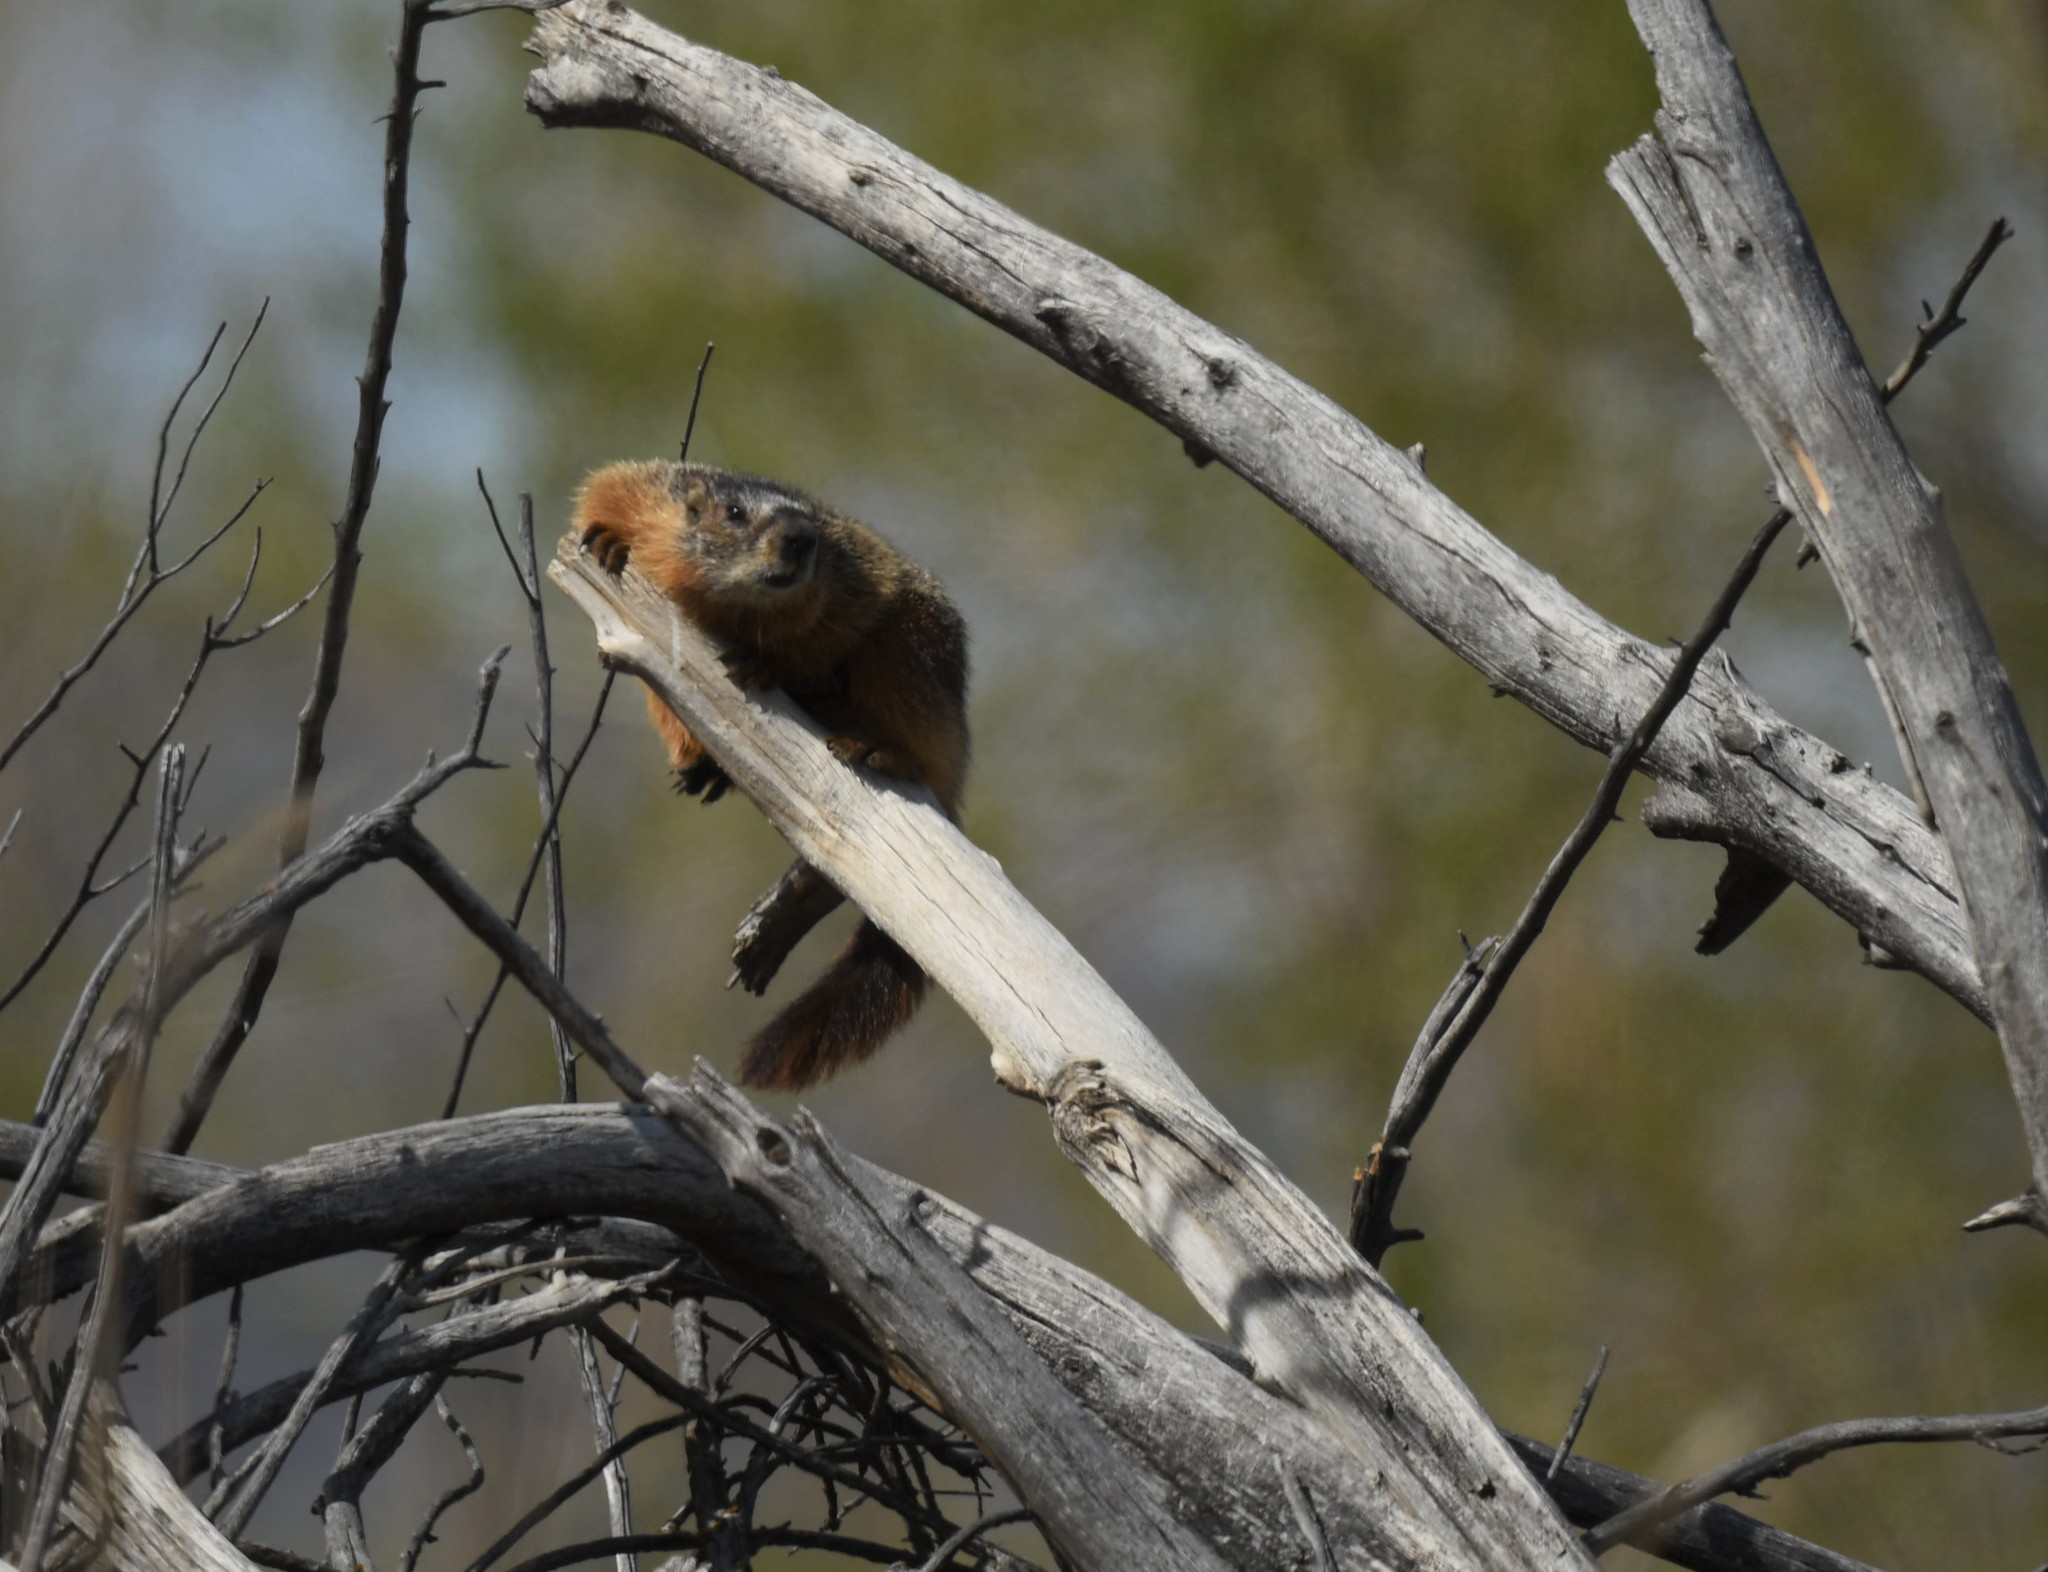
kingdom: Animalia
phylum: Chordata
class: Mammalia
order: Rodentia
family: Sciuridae
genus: Marmota
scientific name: Marmota flaviventris
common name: Yellow-bellied marmot
